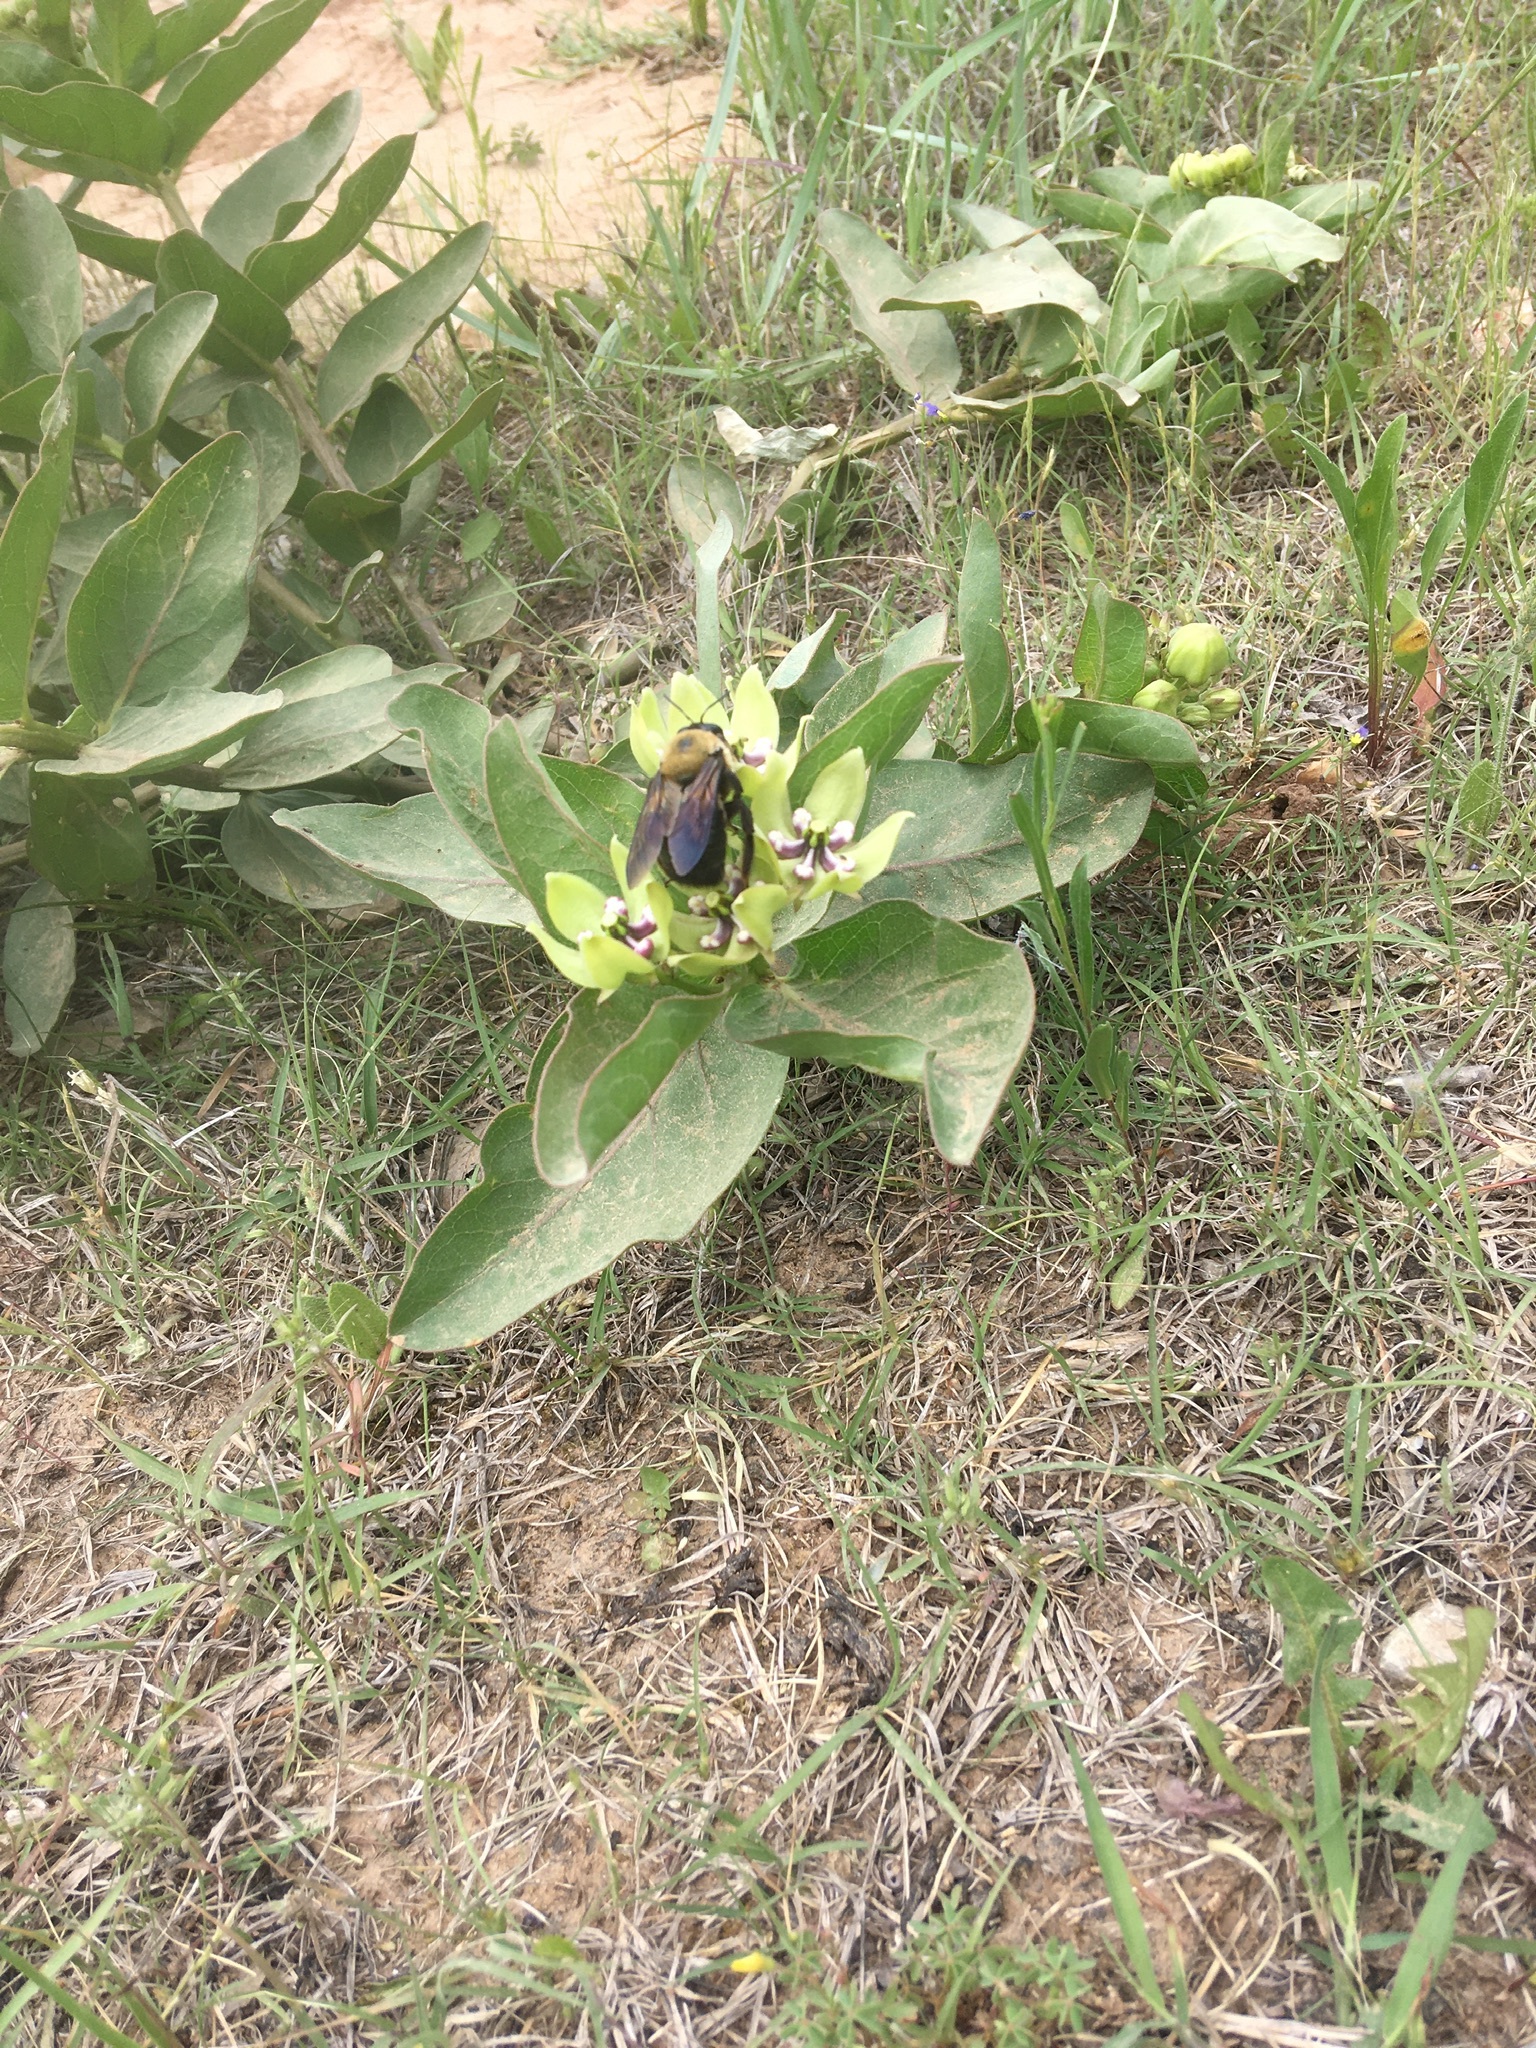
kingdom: Animalia
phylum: Arthropoda
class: Insecta
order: Hymenoptera
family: Apidae
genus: Xylocopa
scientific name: Xylocopa virginica
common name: Carpenter bee
